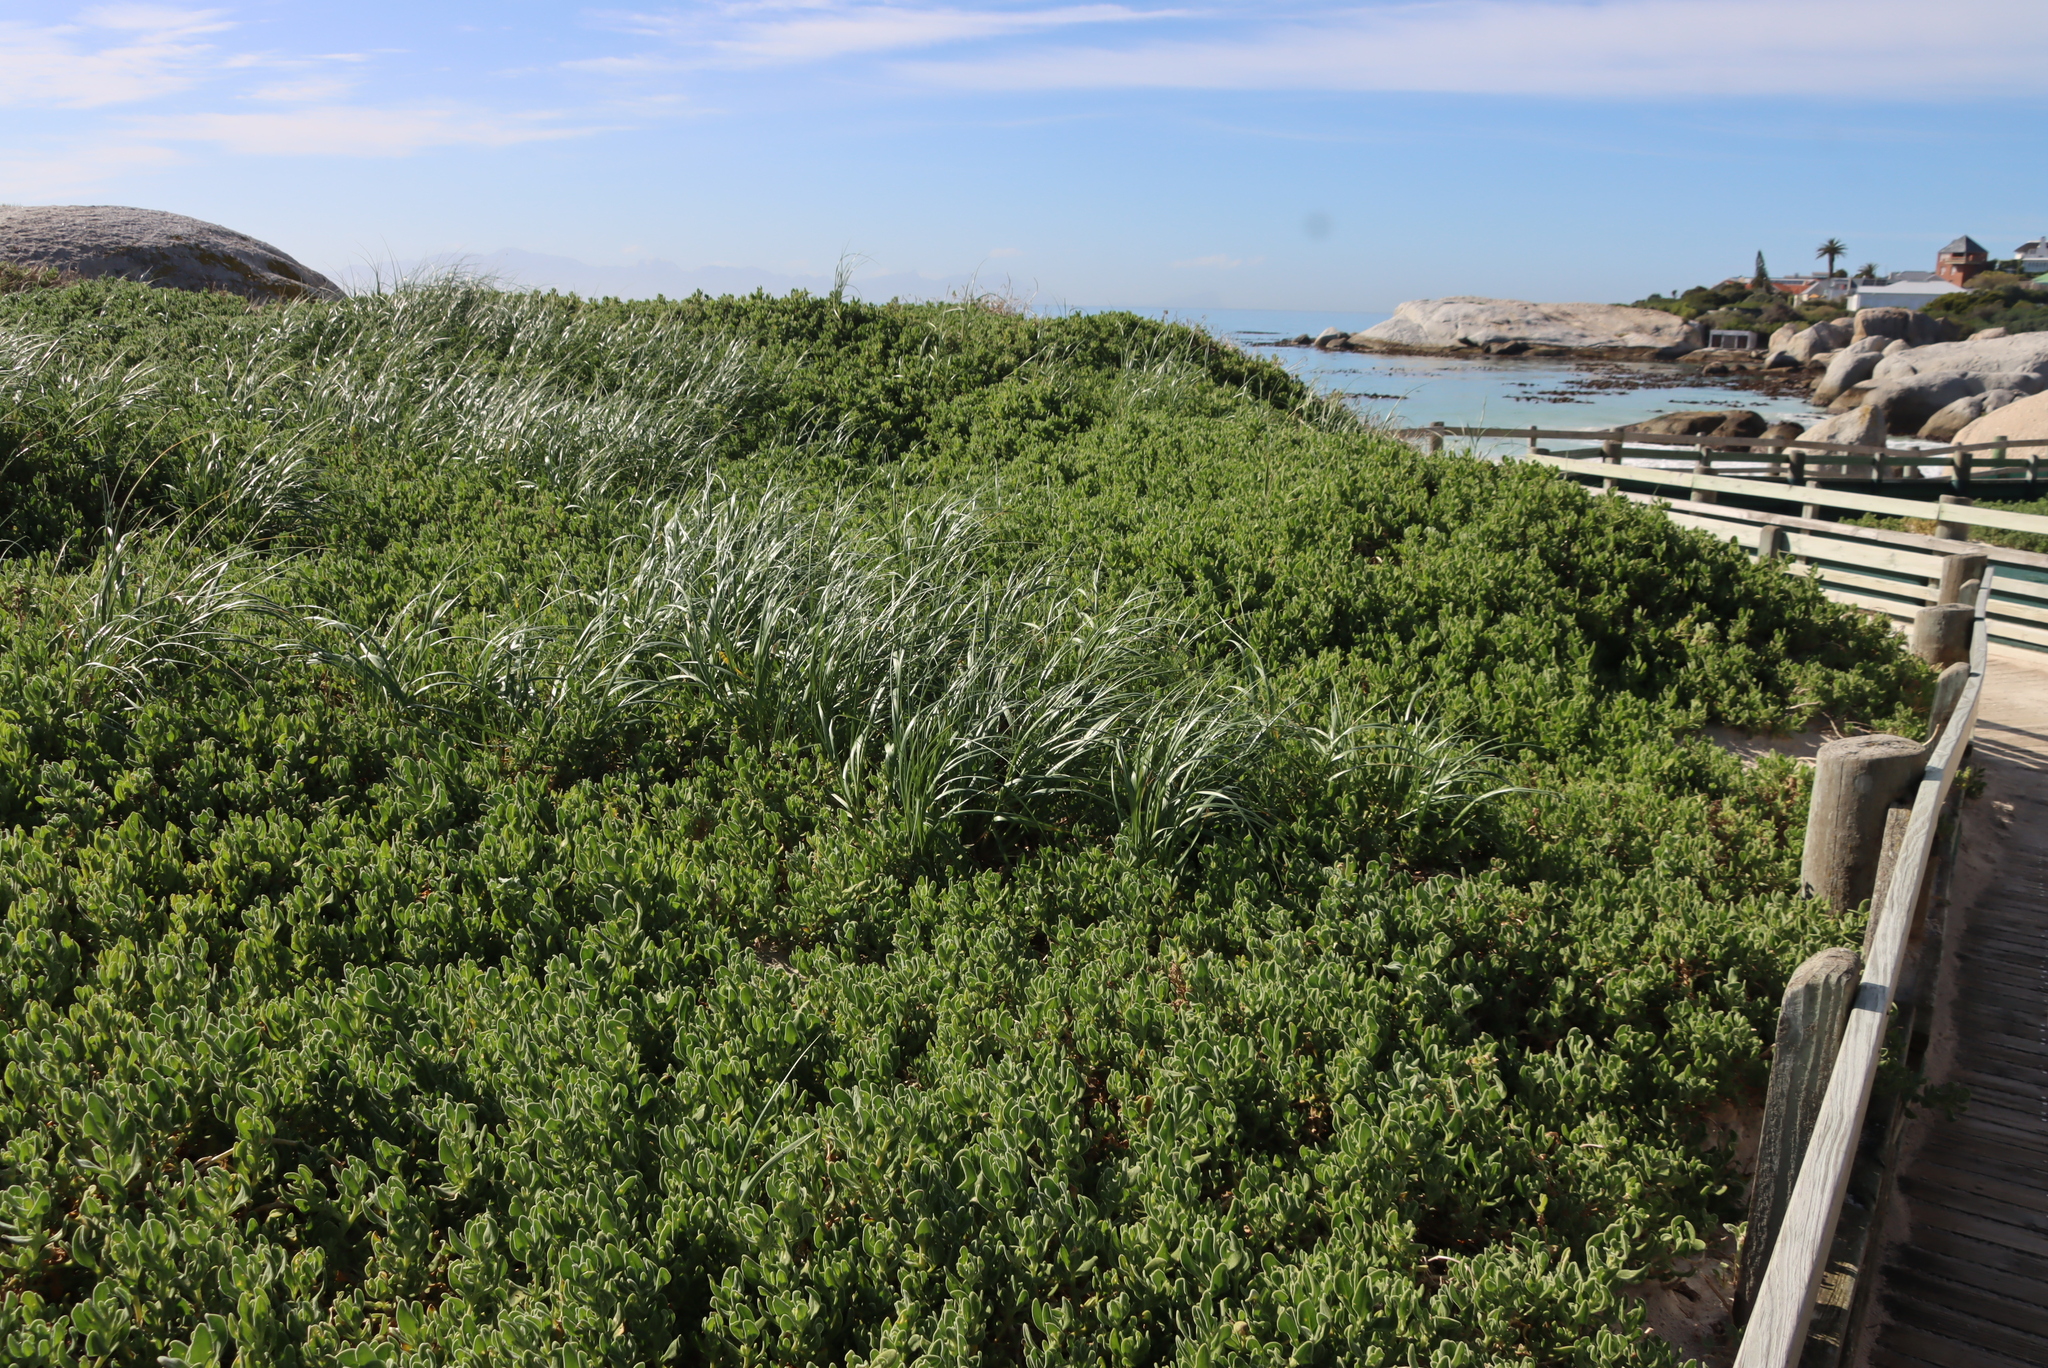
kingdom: Plantae
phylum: Tracheophyta
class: Liliopsida
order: Poales
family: Poaceae
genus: Thinopyrum
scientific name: Thinopyrum distichum
